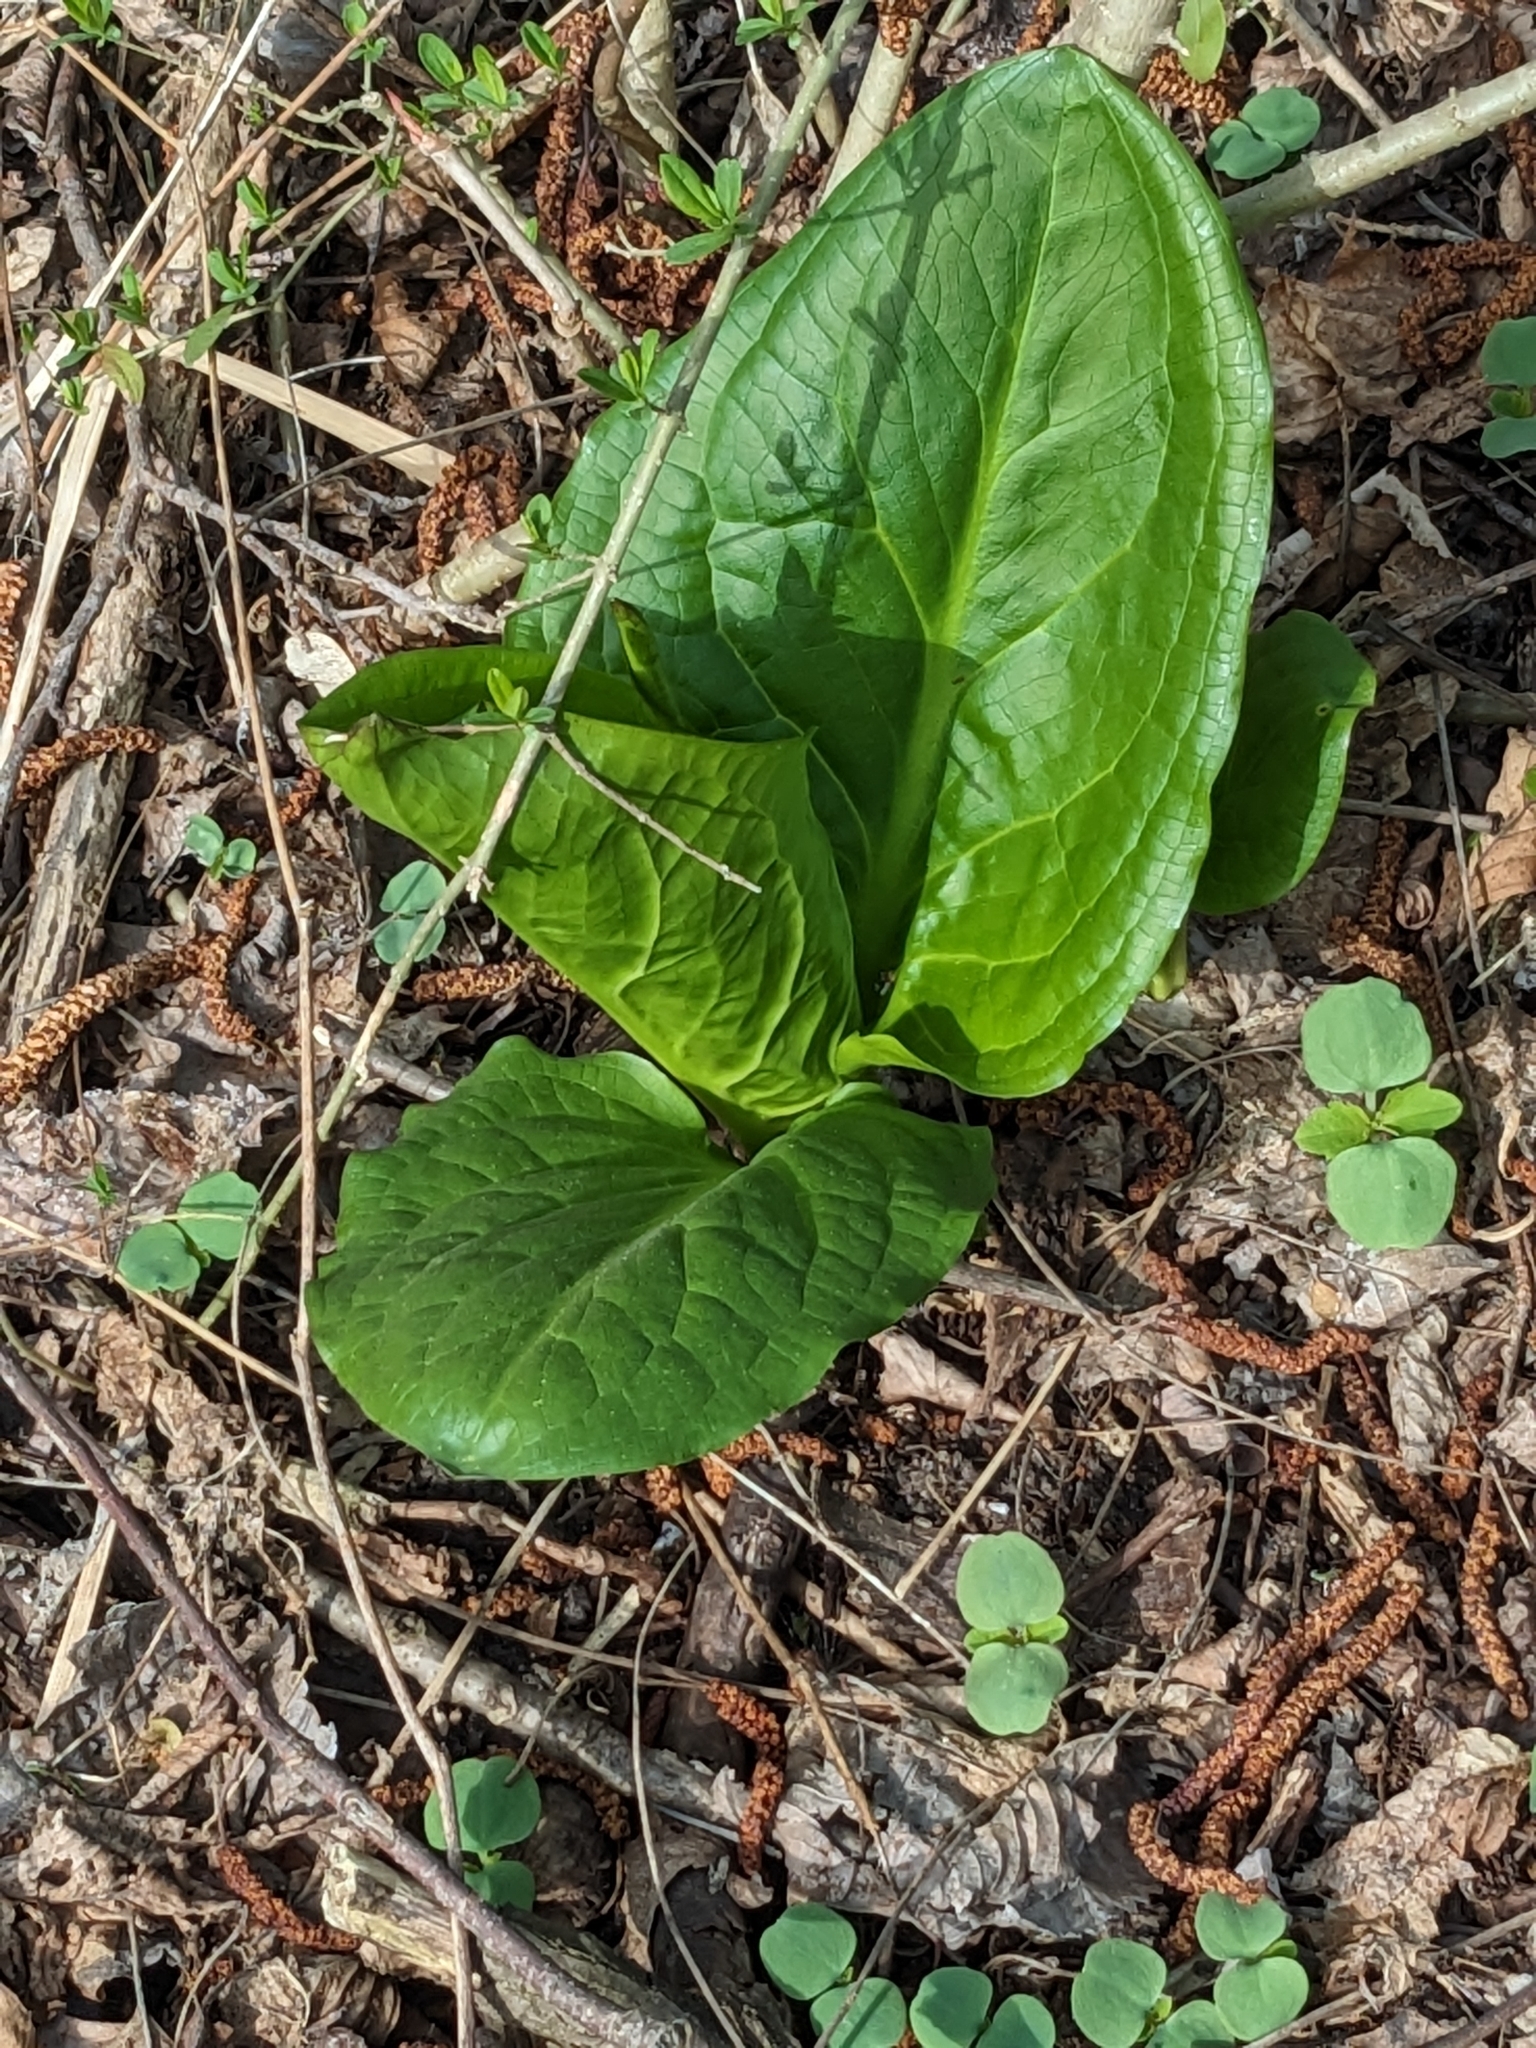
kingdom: Plantae
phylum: Tracheophyta
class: Liliopsida
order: Alismatales
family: Araceae
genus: Symplocarpus
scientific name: Symplocarpus foetidus
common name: Eastern skunk cabbage
